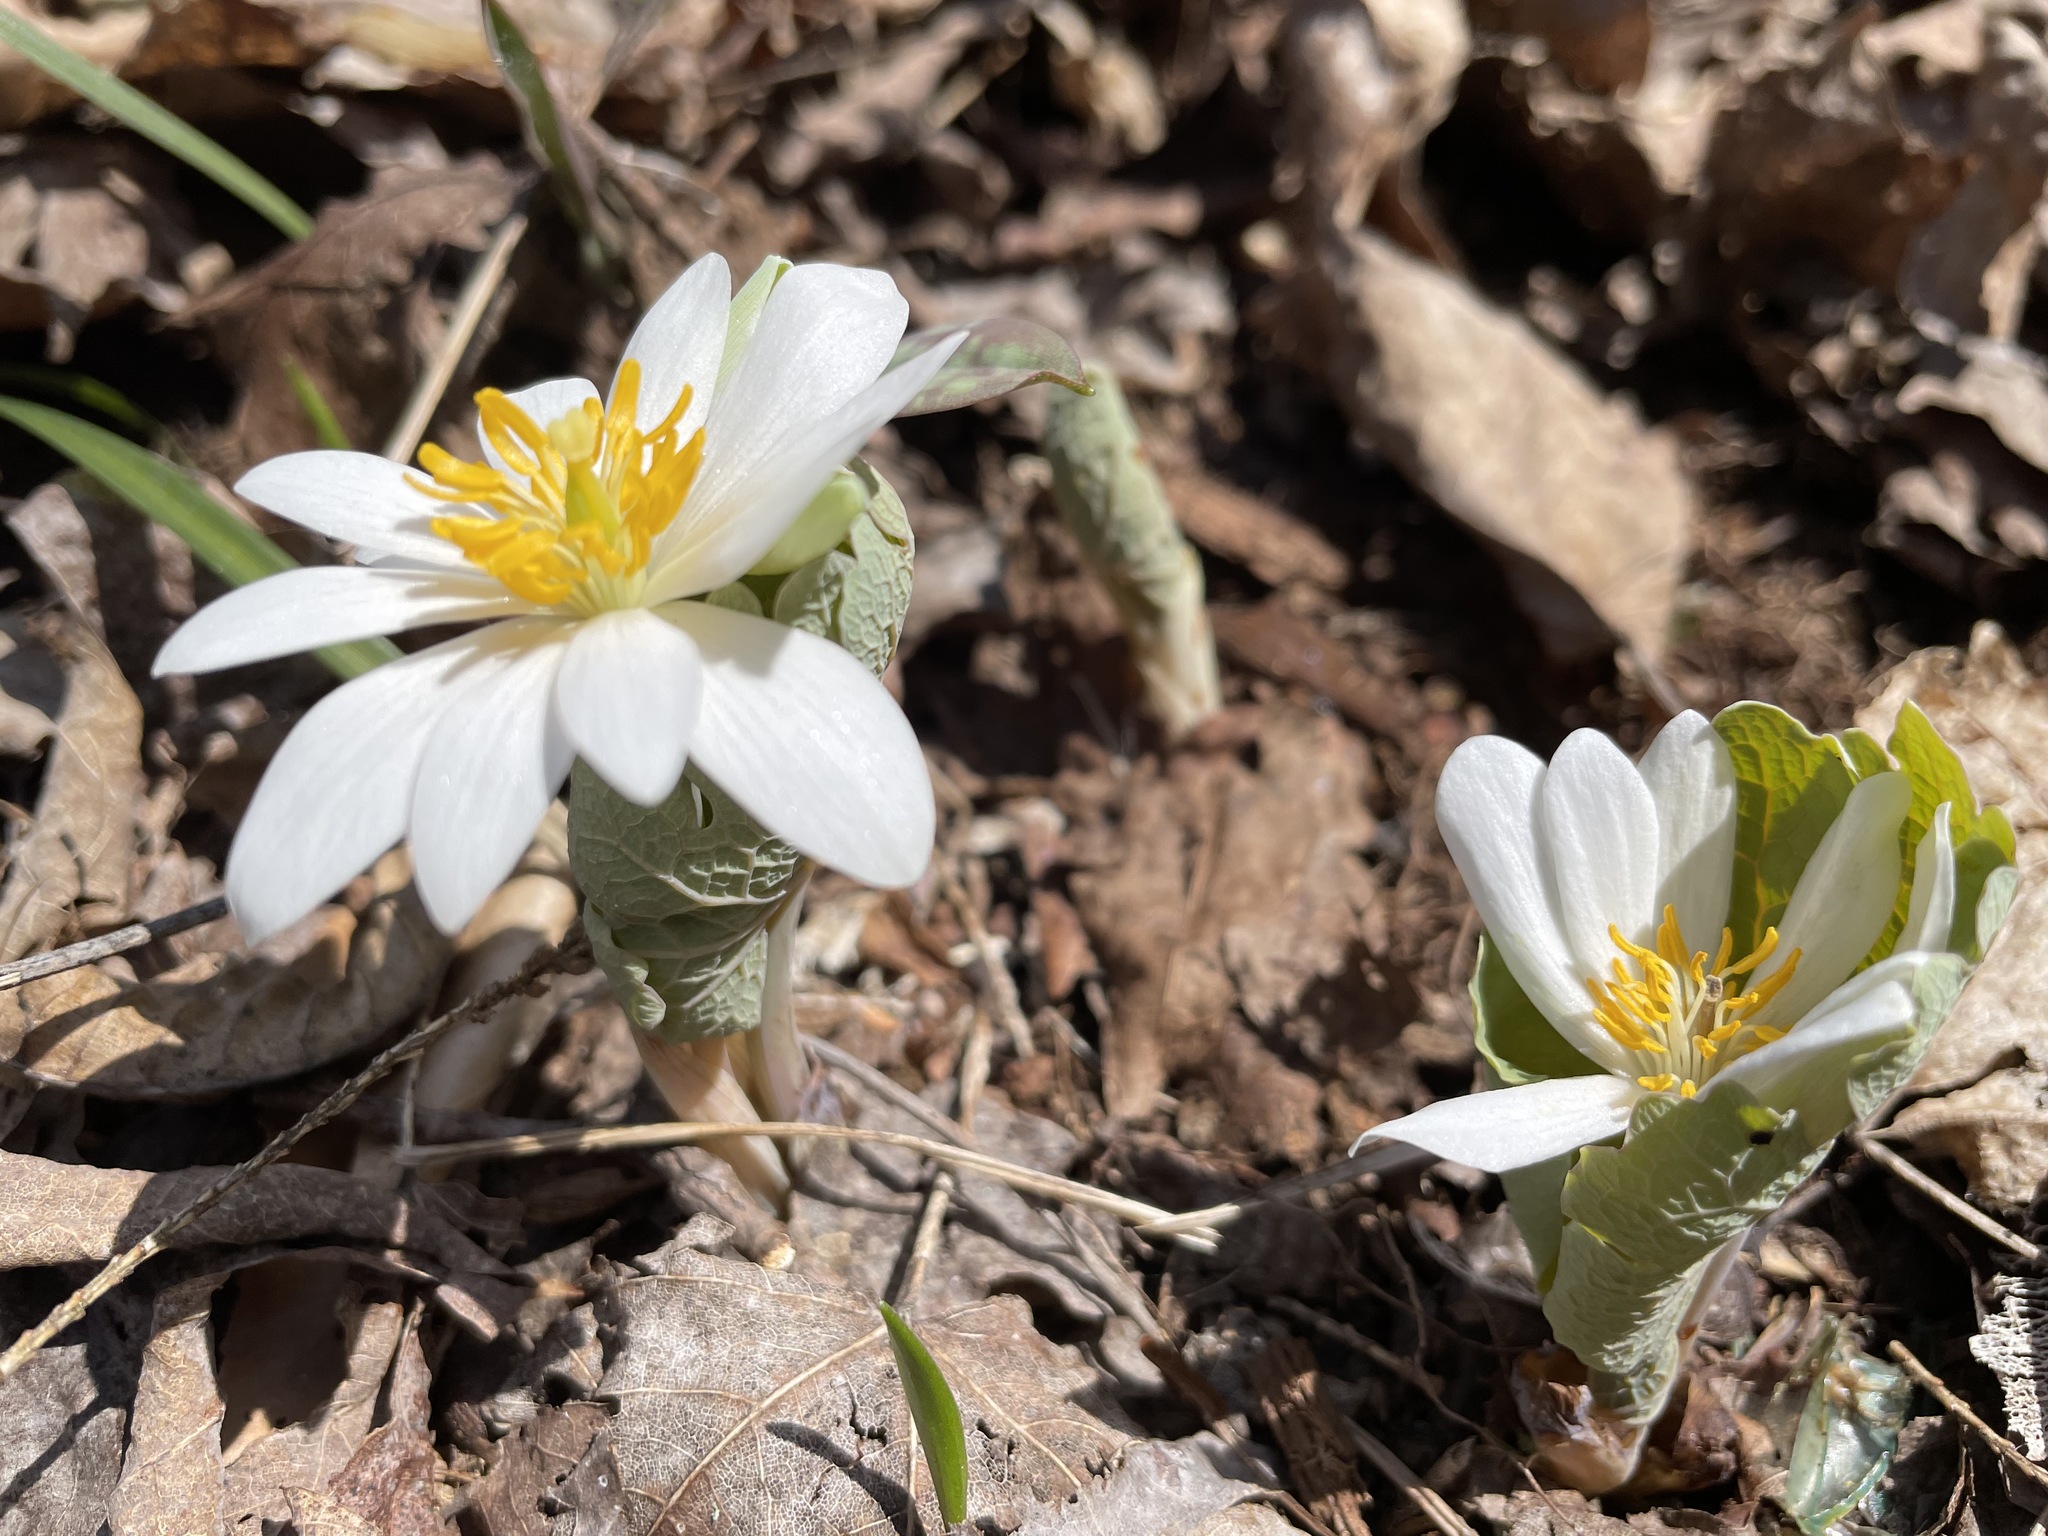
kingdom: Plantae
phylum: Tracheophyta
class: Magnoliopsida
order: Ranunculales
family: Papaveraceae
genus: Sanguinaria
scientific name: Sanguinaria canadensis
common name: Bloodroot
